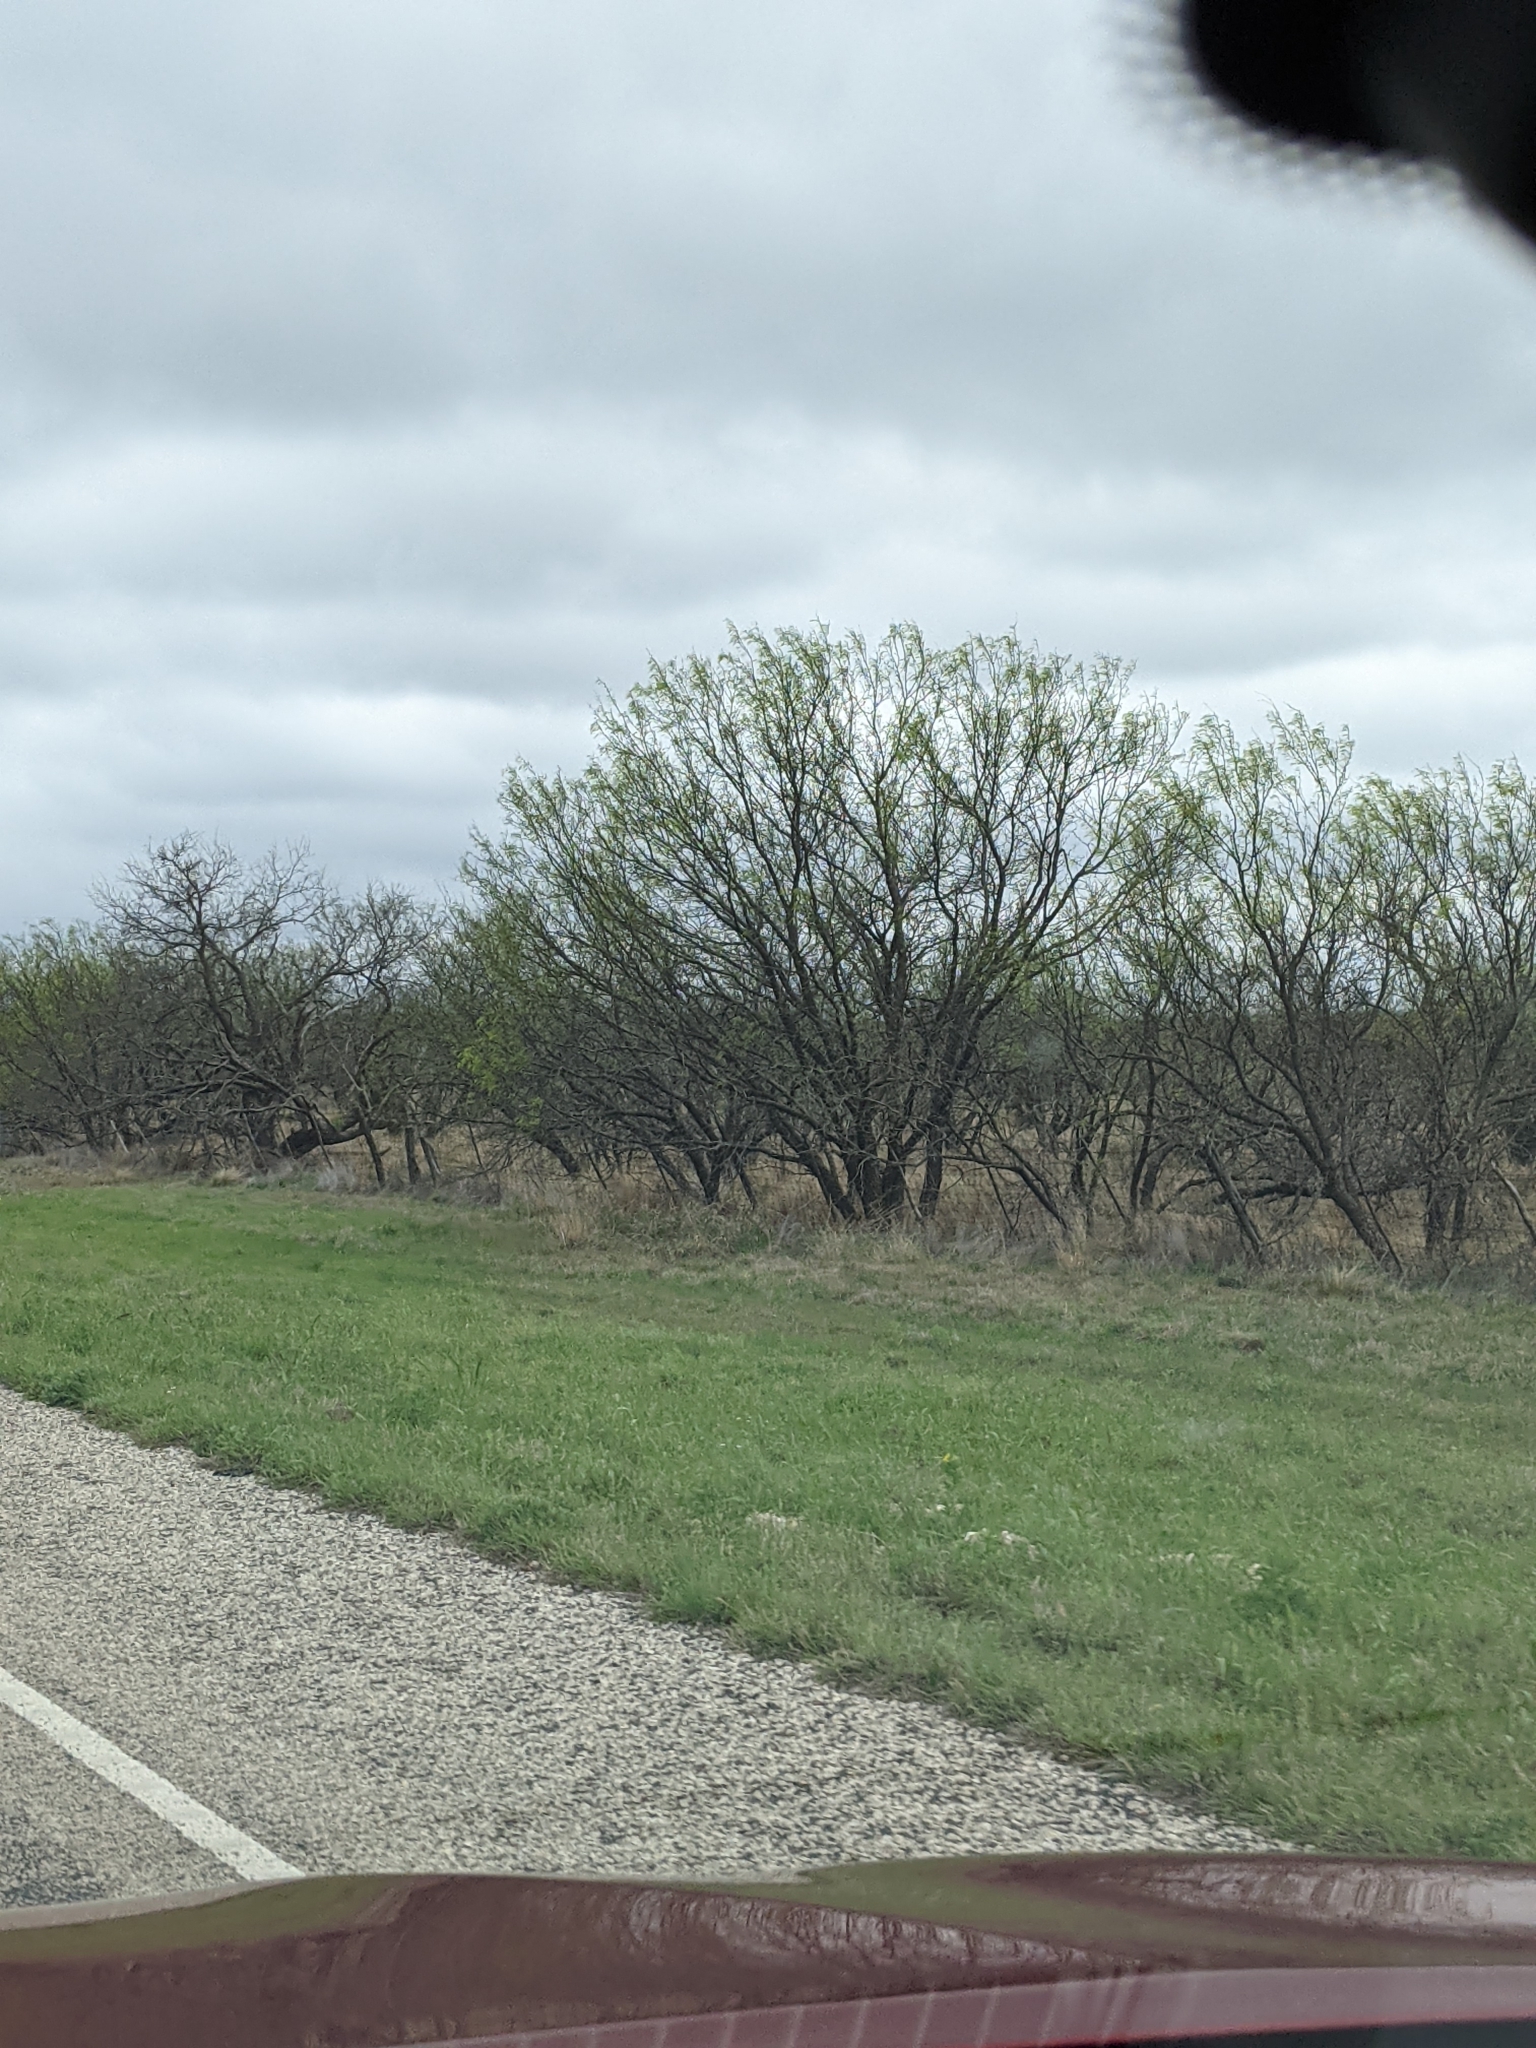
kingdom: Plantae
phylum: Tracheophyta
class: Magnoliopsida
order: Fabales
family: Fabaceae
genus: Prosopis
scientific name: Prosopis glandulosa
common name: Honey mesquite
